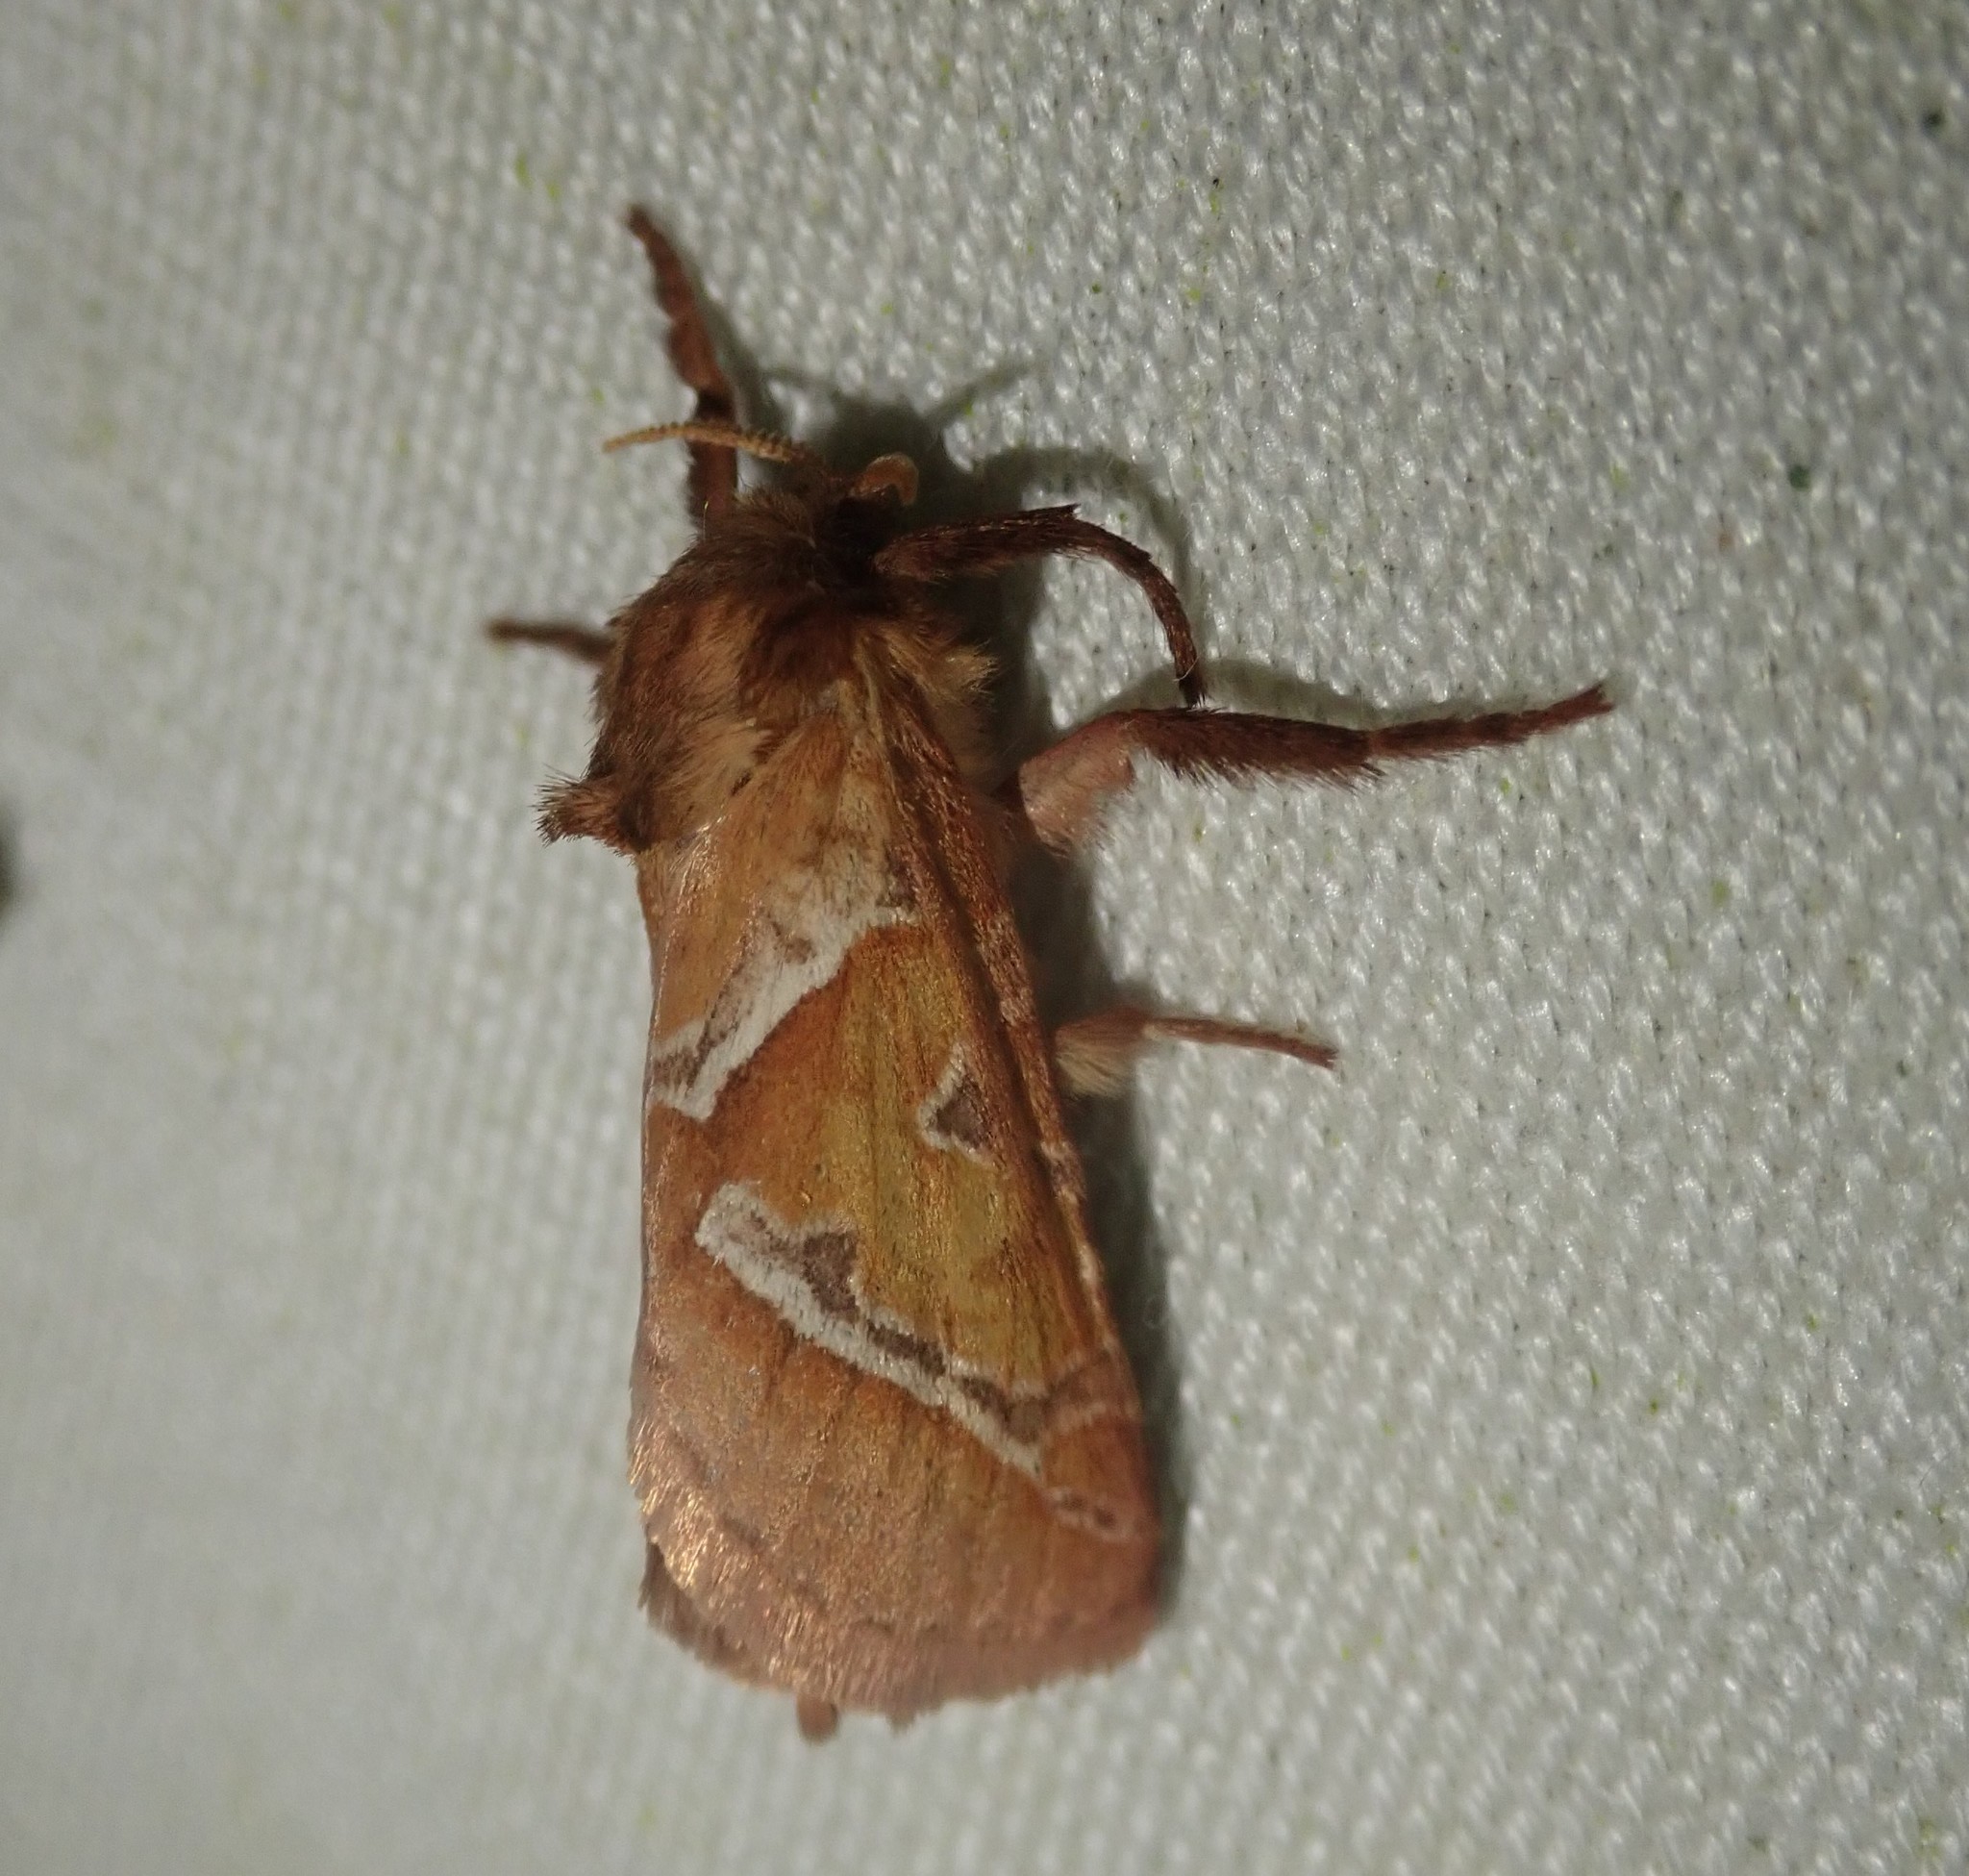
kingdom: Animalia
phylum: Arthropoda
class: Insecta
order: Lepidoptera
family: Hepialidae
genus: Triodia
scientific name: Triodia sylvina
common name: Orange swift
